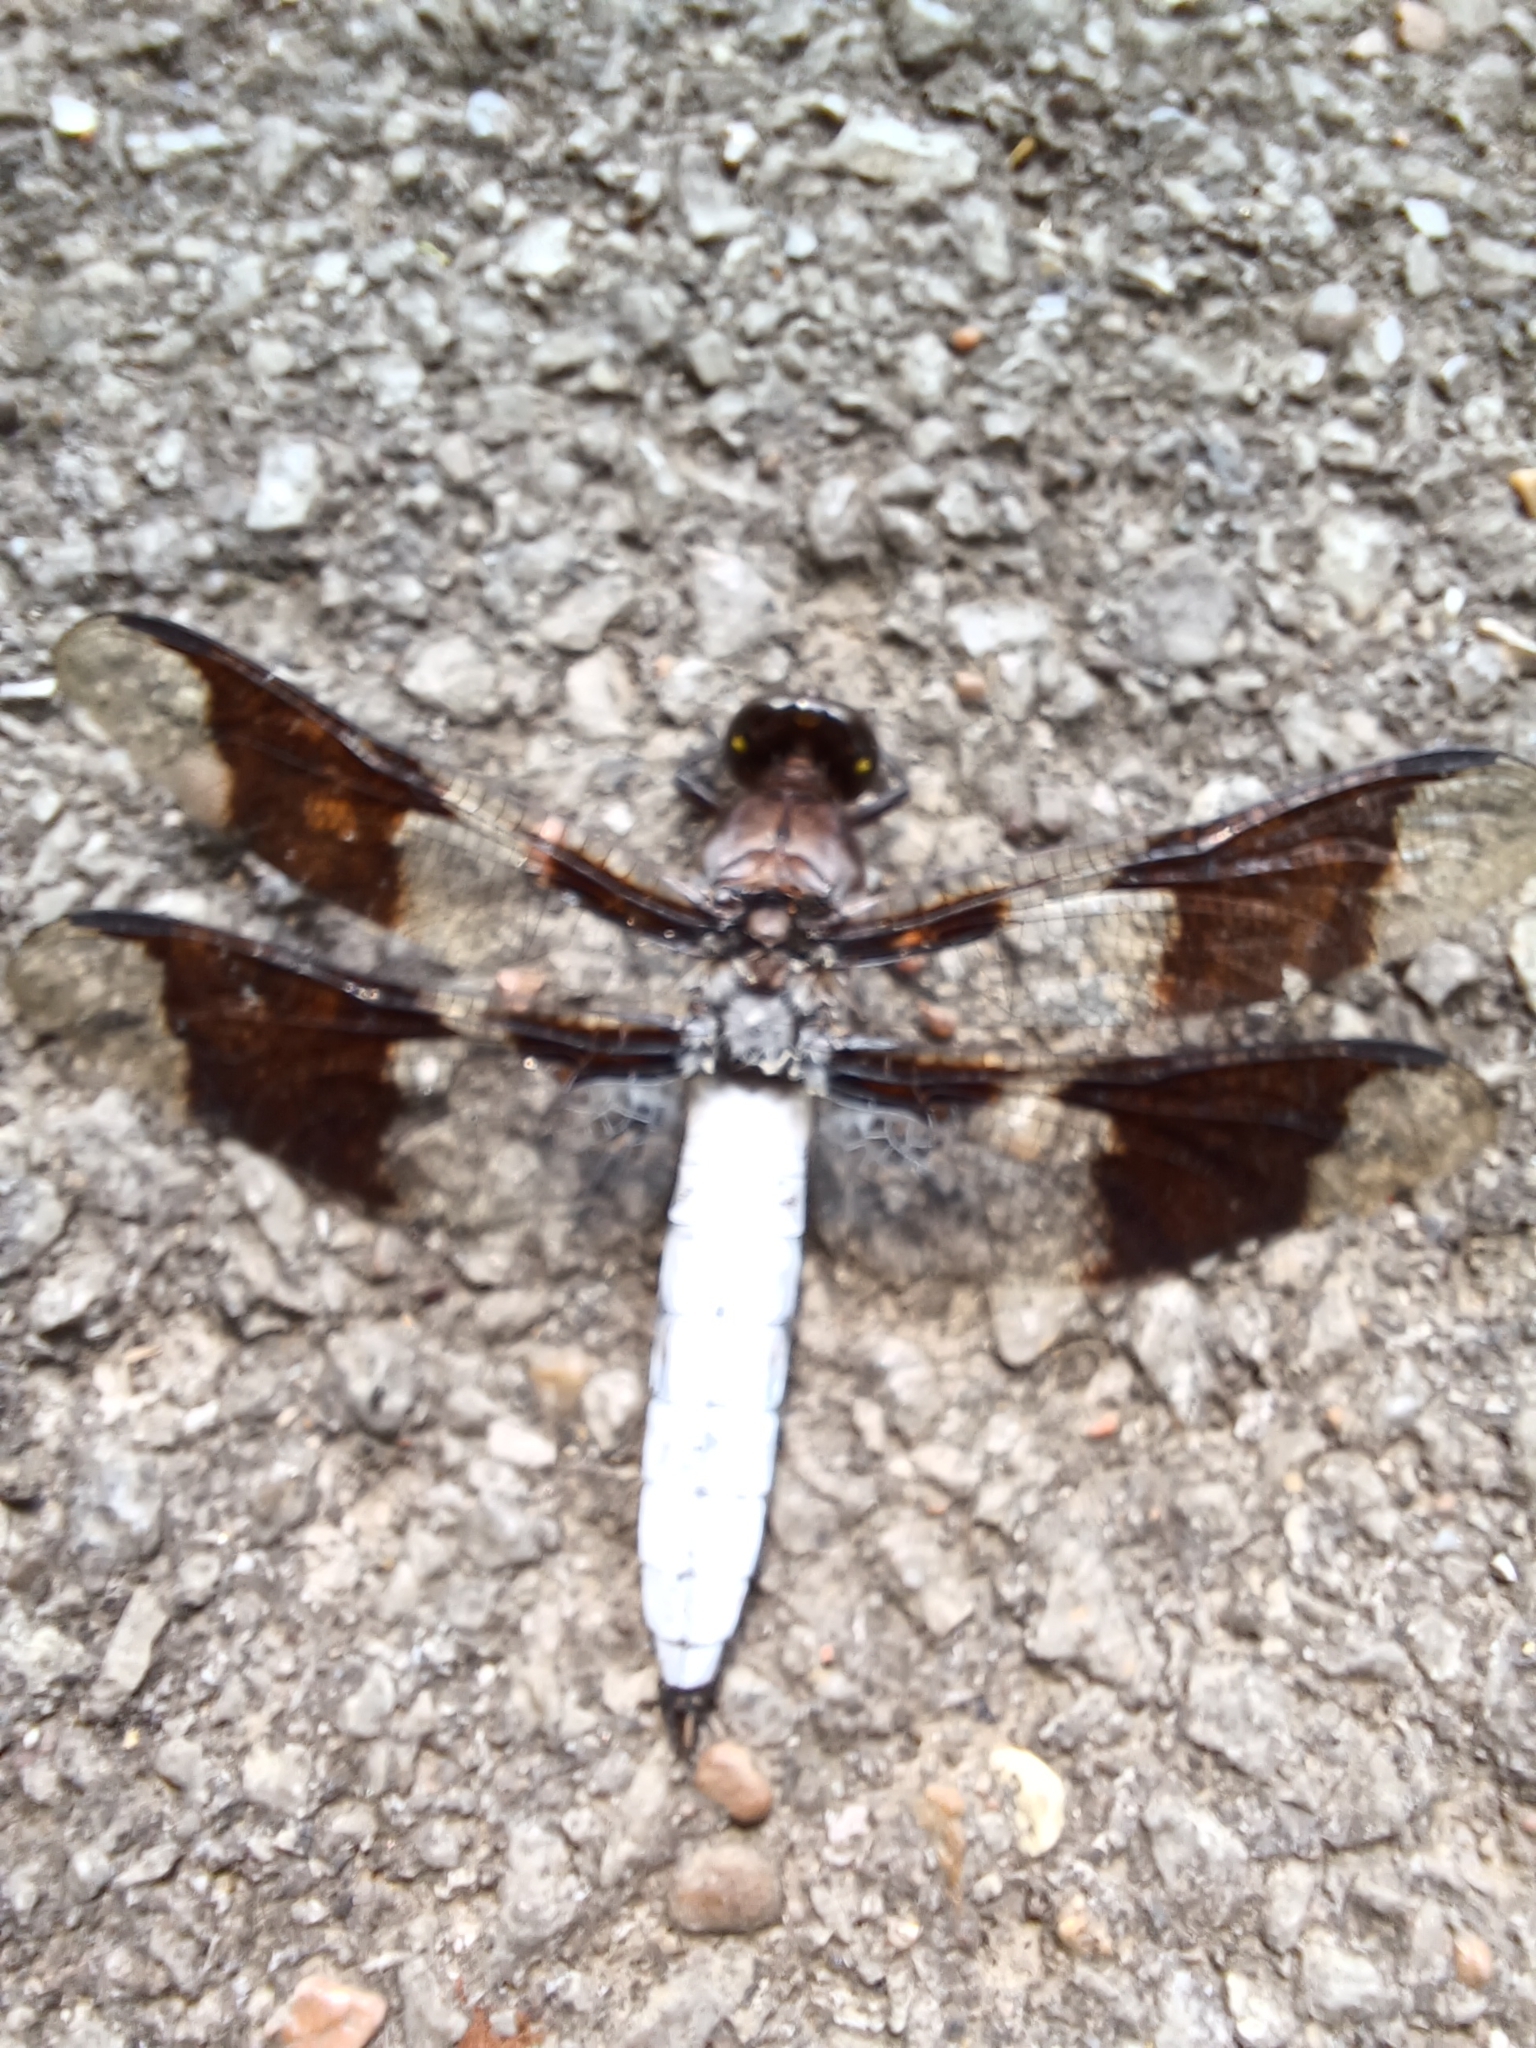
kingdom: Animalia
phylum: Arthropoda
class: Insecta
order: Odonata
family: Libellulidae
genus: Plathemis
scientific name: Plathemis lydia
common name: Common whitetail
